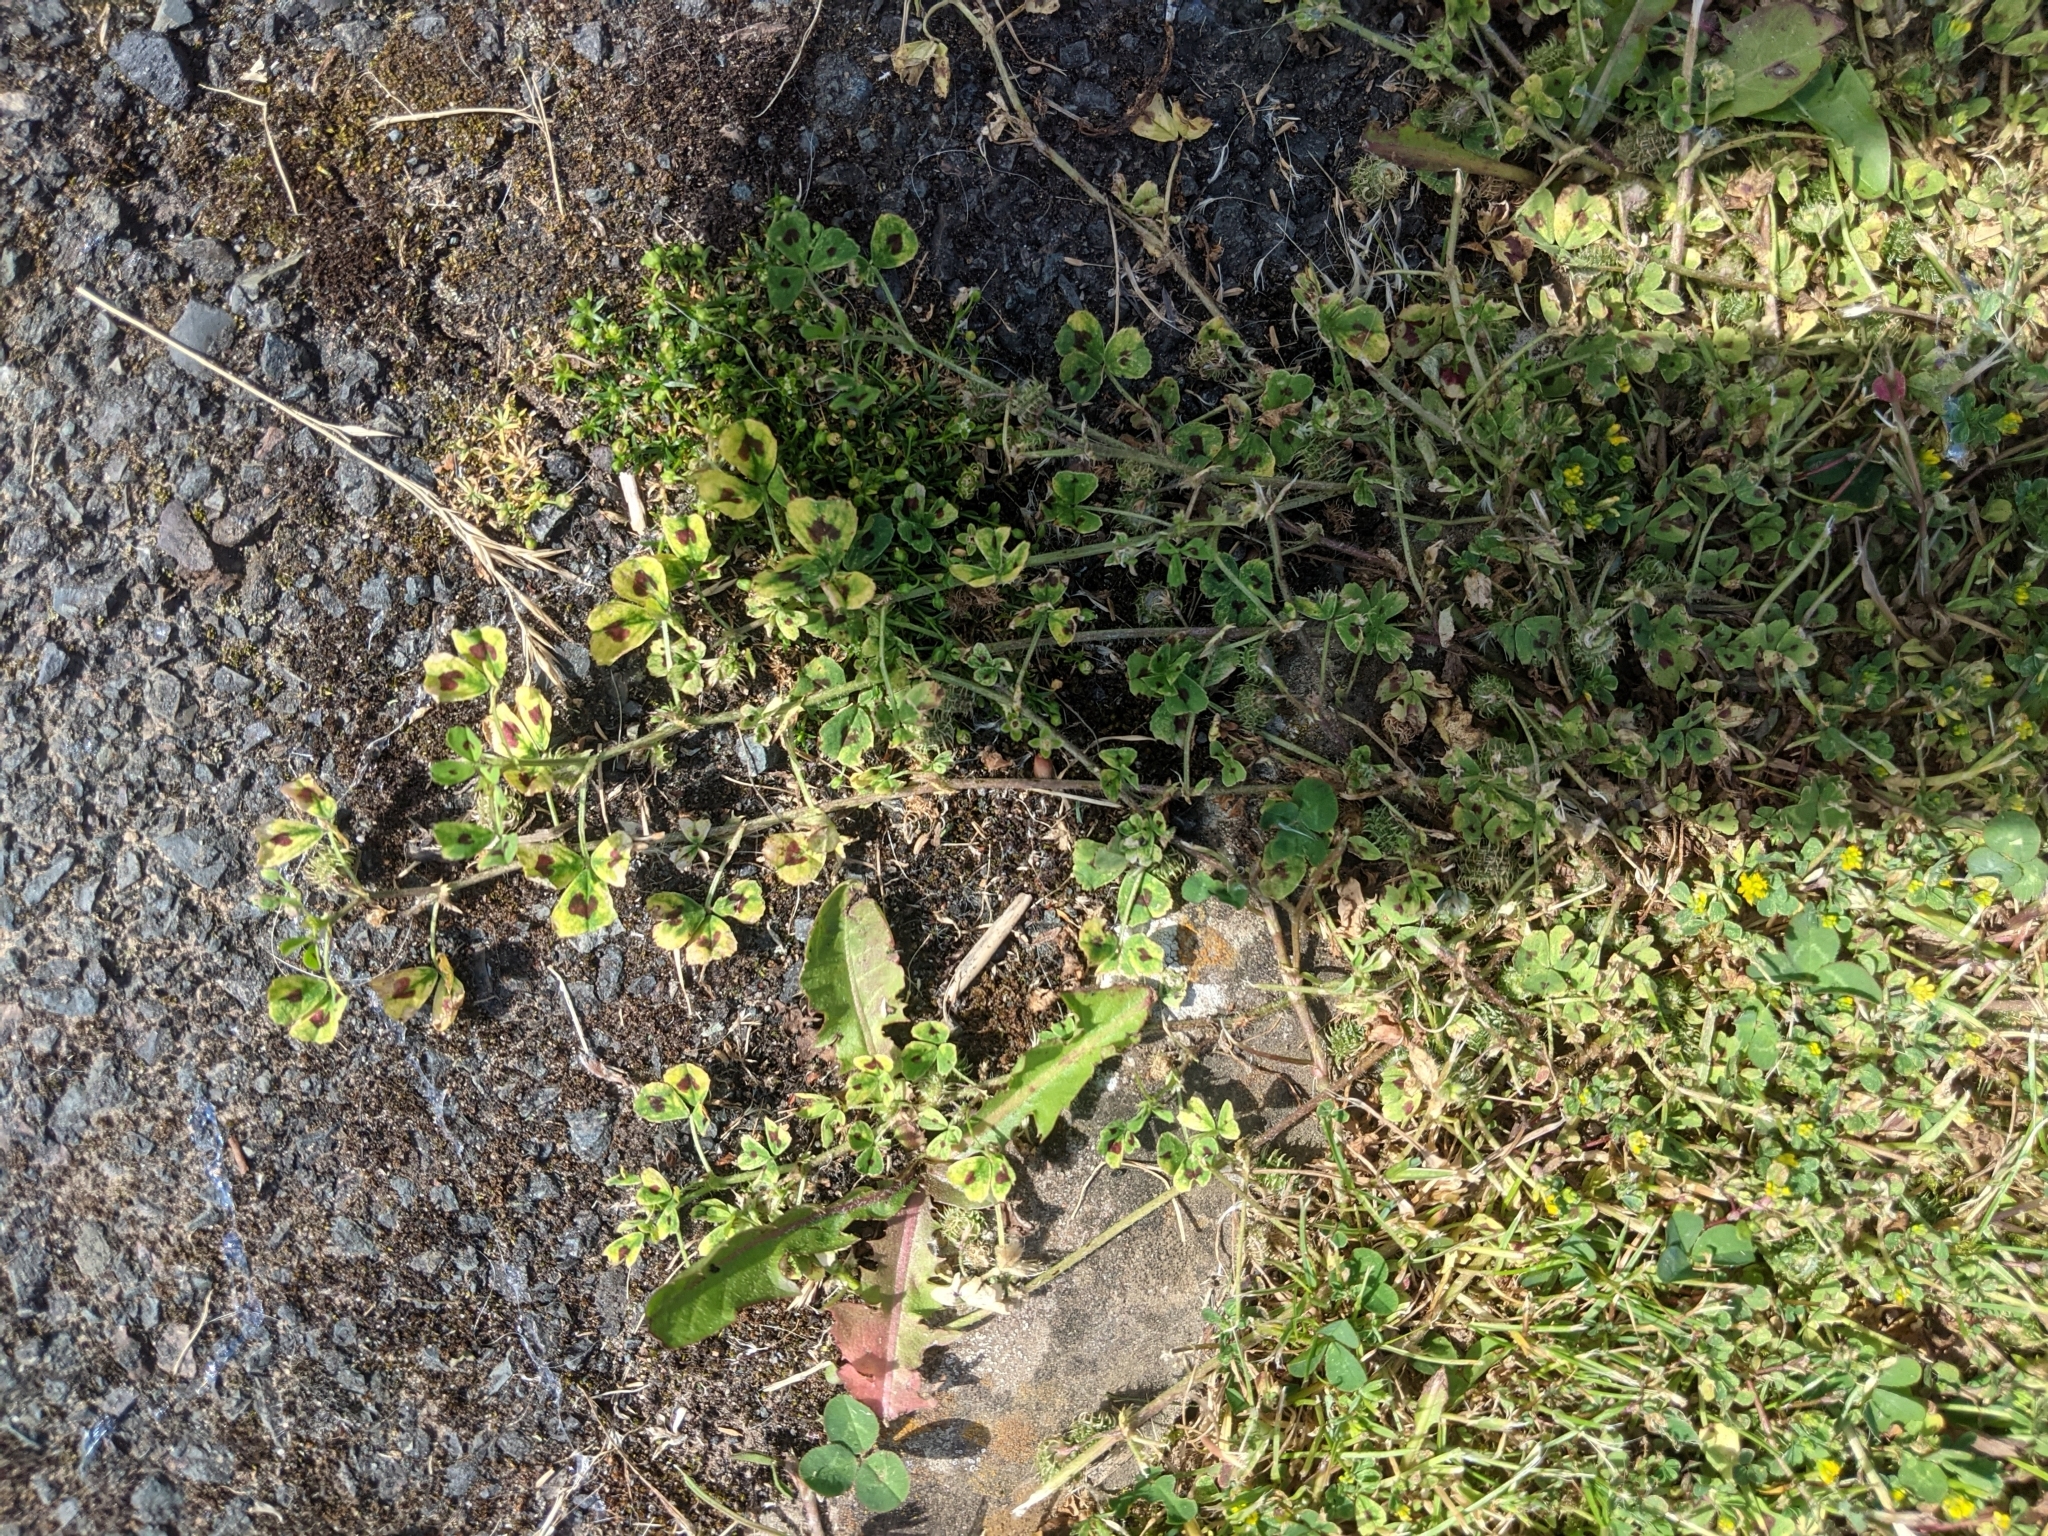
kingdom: Plantae
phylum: Tracheophyta
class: Magnoliopsida
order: Fabales
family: Fabaceae
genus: Medicago
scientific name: Medicago arabica
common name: Spotted medick
